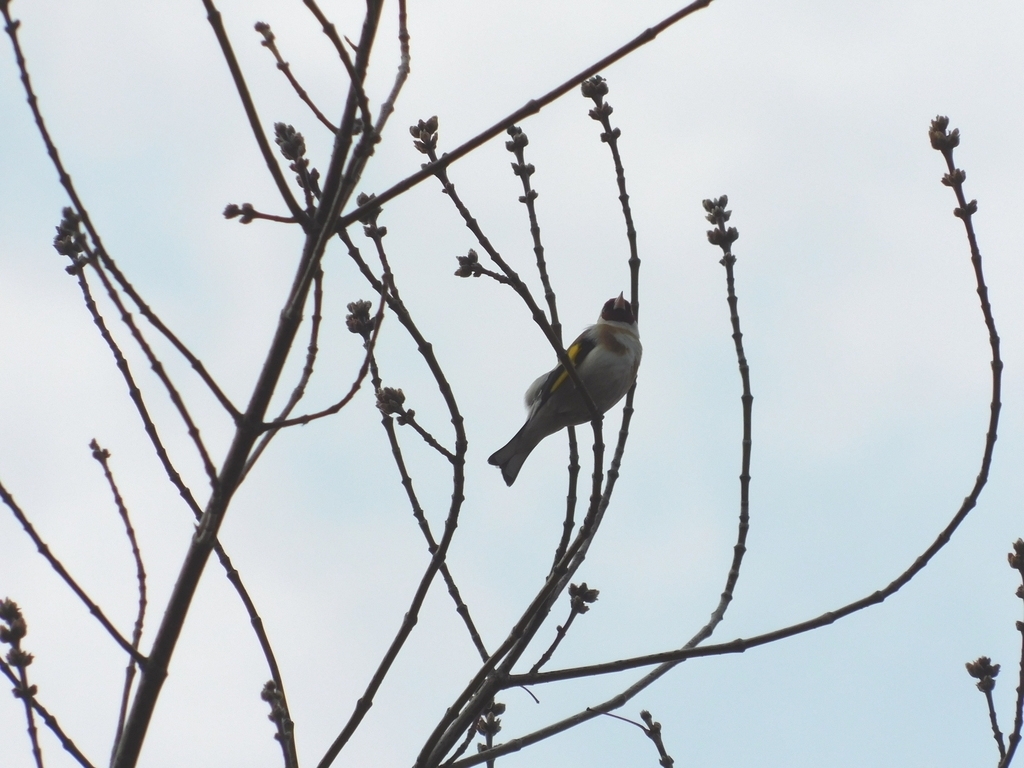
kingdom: Animalia
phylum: Chordata
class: Aves
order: Passeriformes
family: Fringillidae
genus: Carduelis
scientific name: Carduelis carduelis
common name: European goldfinch
